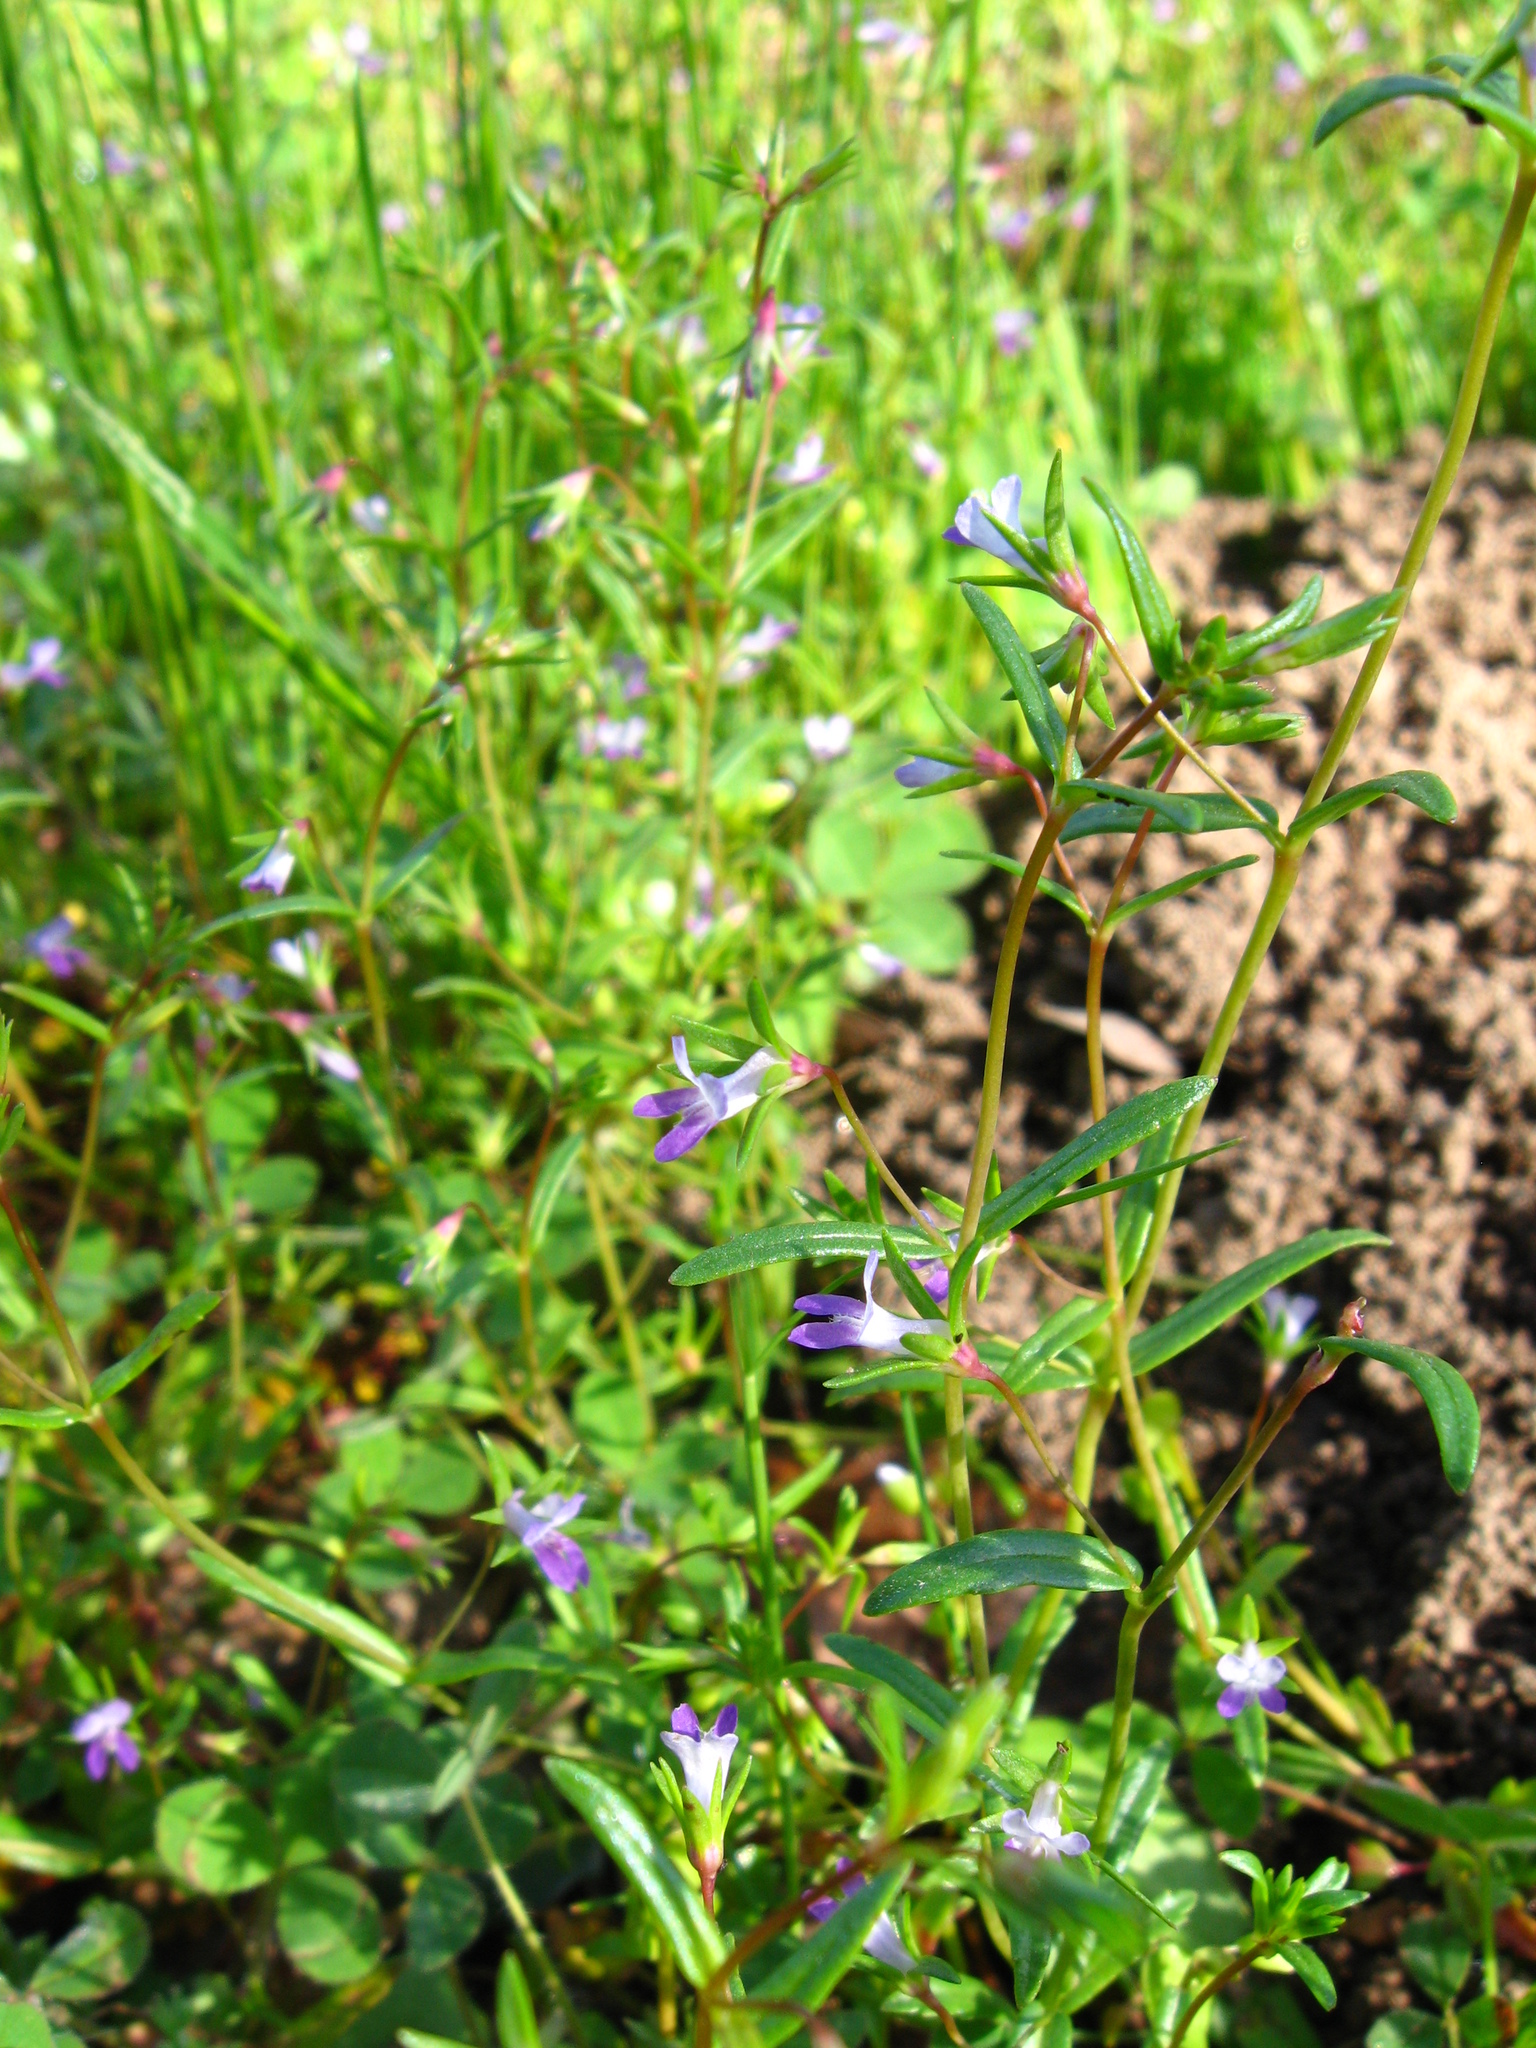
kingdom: Plantae
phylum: Tracheophyta
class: Magnoliopsida
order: Lamiales
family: Plantaginaceae
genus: Collinsia
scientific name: Collinsia sparsiflora
